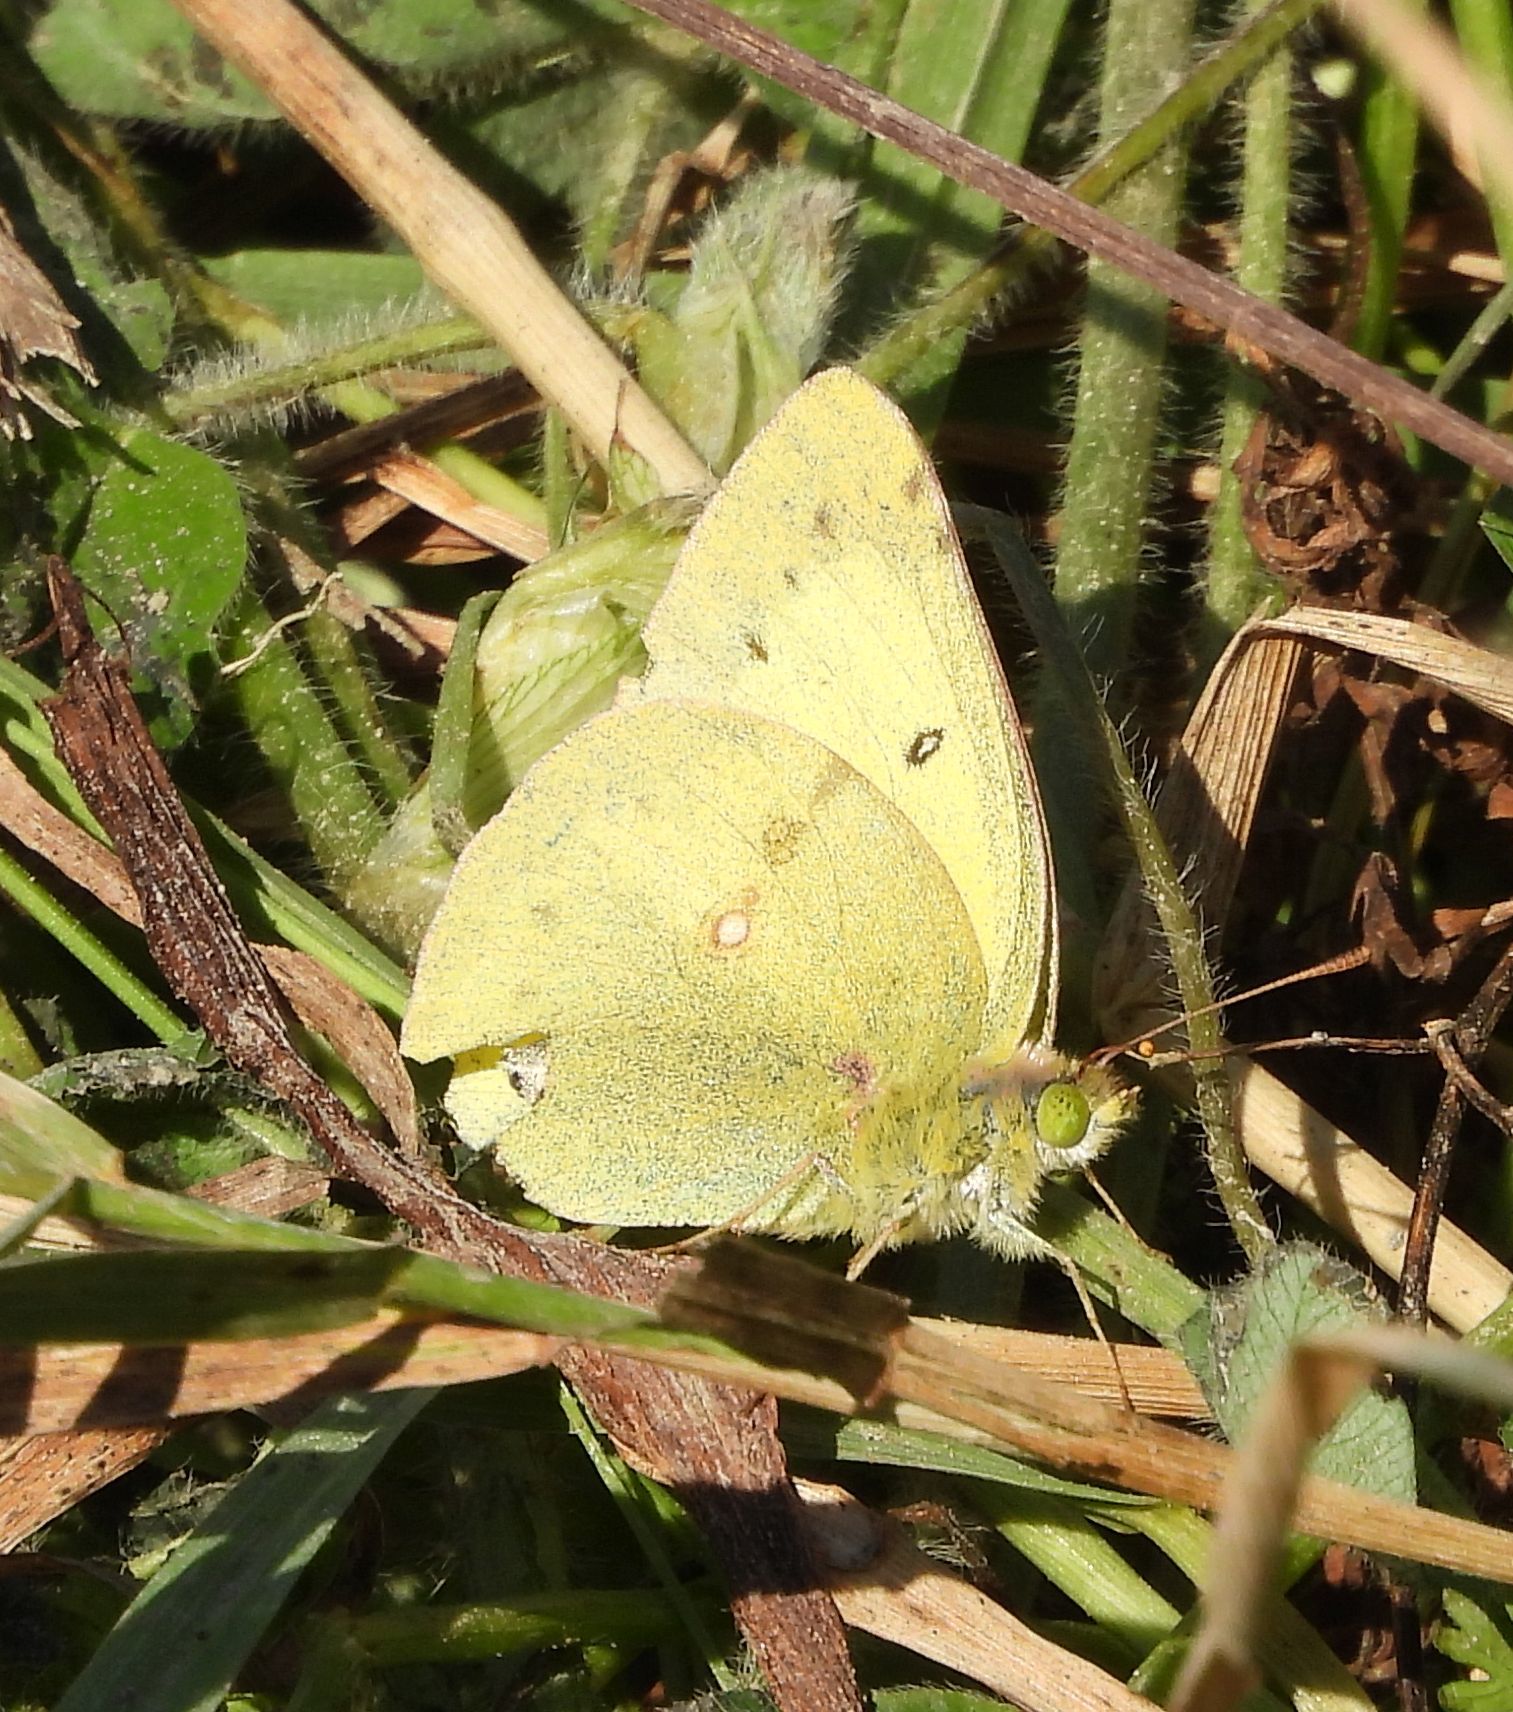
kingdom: Animalia
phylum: Arthropoda
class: Insecta
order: Lepidoptera
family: Pieridae
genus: Colias
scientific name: Colias philodice
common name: Clouded sulphur
